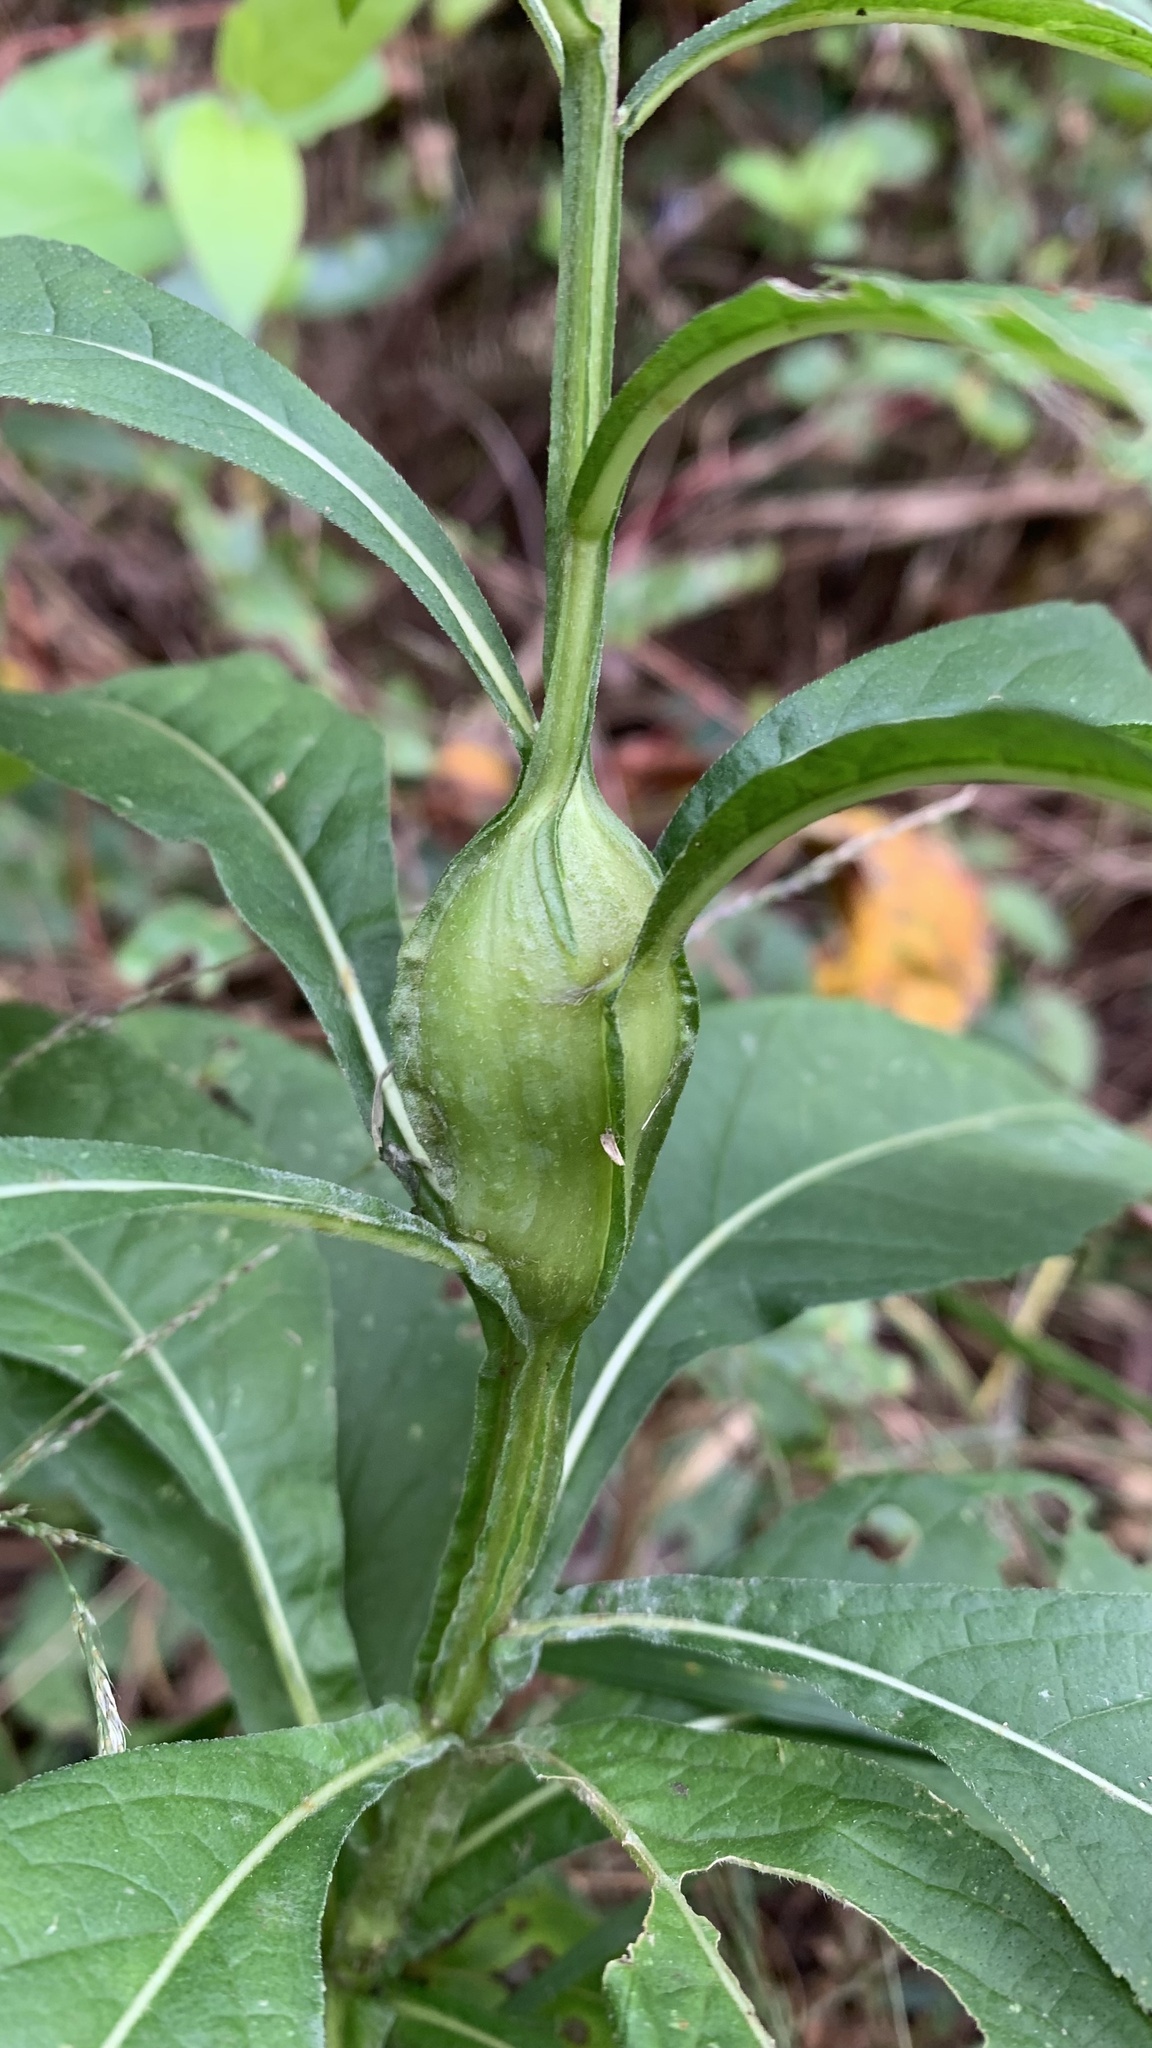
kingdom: Animalia
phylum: Arthropoda
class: Insecta
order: Diptera
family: Cecidomyiidae
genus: Neolasioptera
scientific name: Neolasioptera verbesinae
